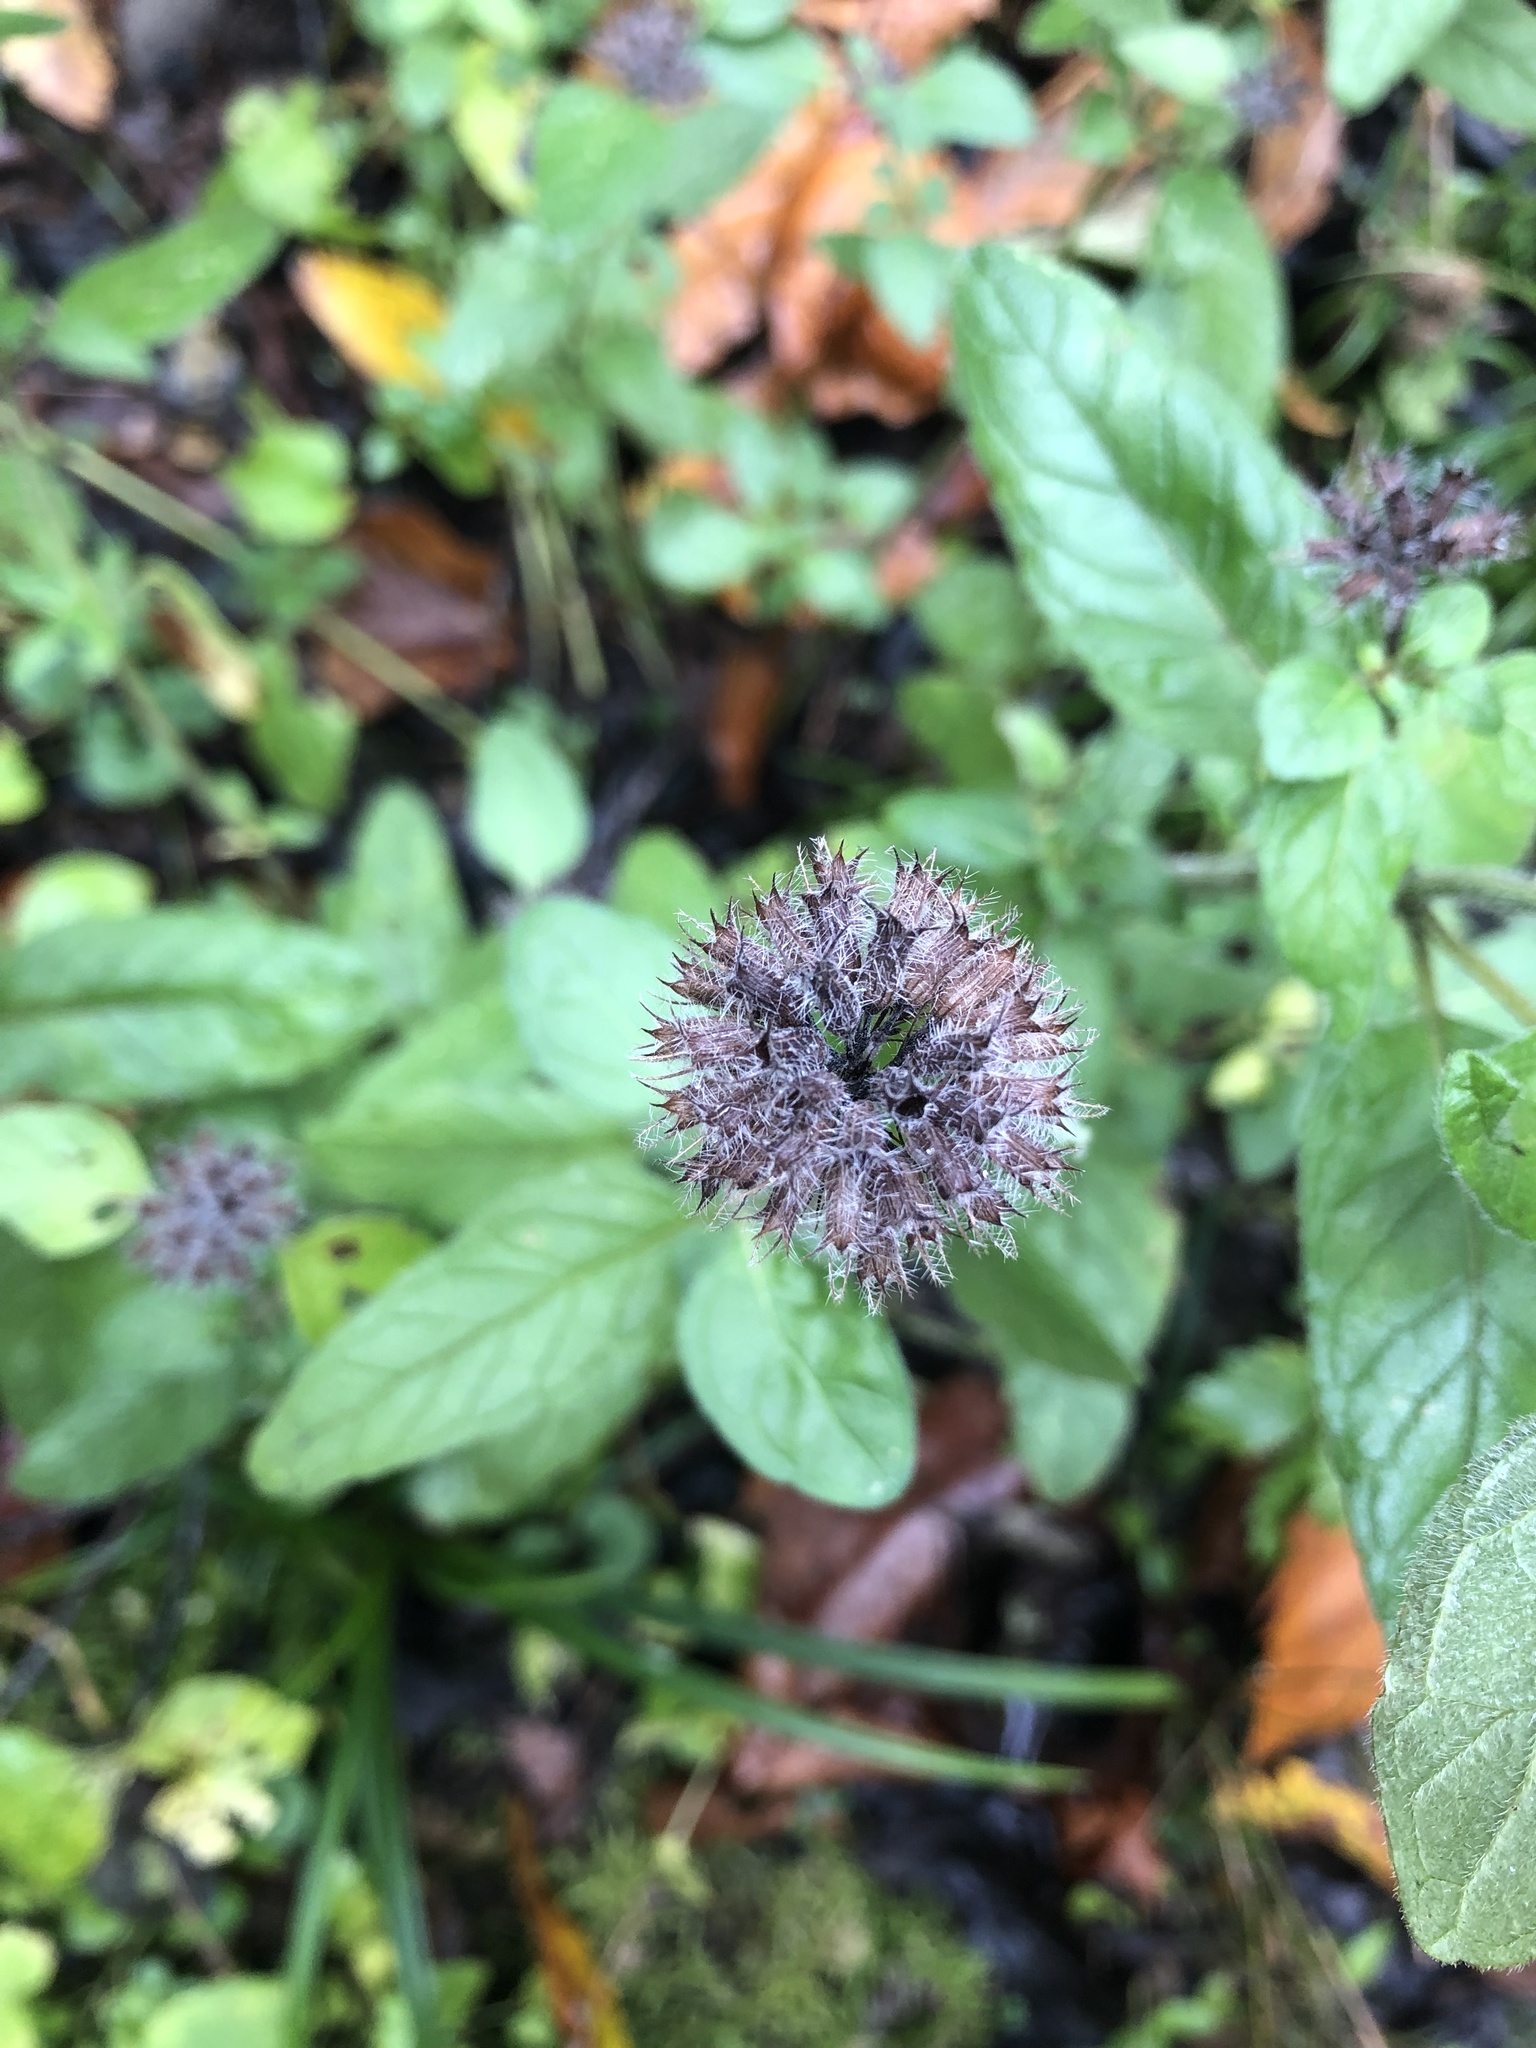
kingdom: Plantae
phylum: Tracheophyta
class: Magnoliopsida
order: Lamiales
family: Lamiaceae
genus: Clinopodium
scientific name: Clinopodium vulgare
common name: Wild basil
